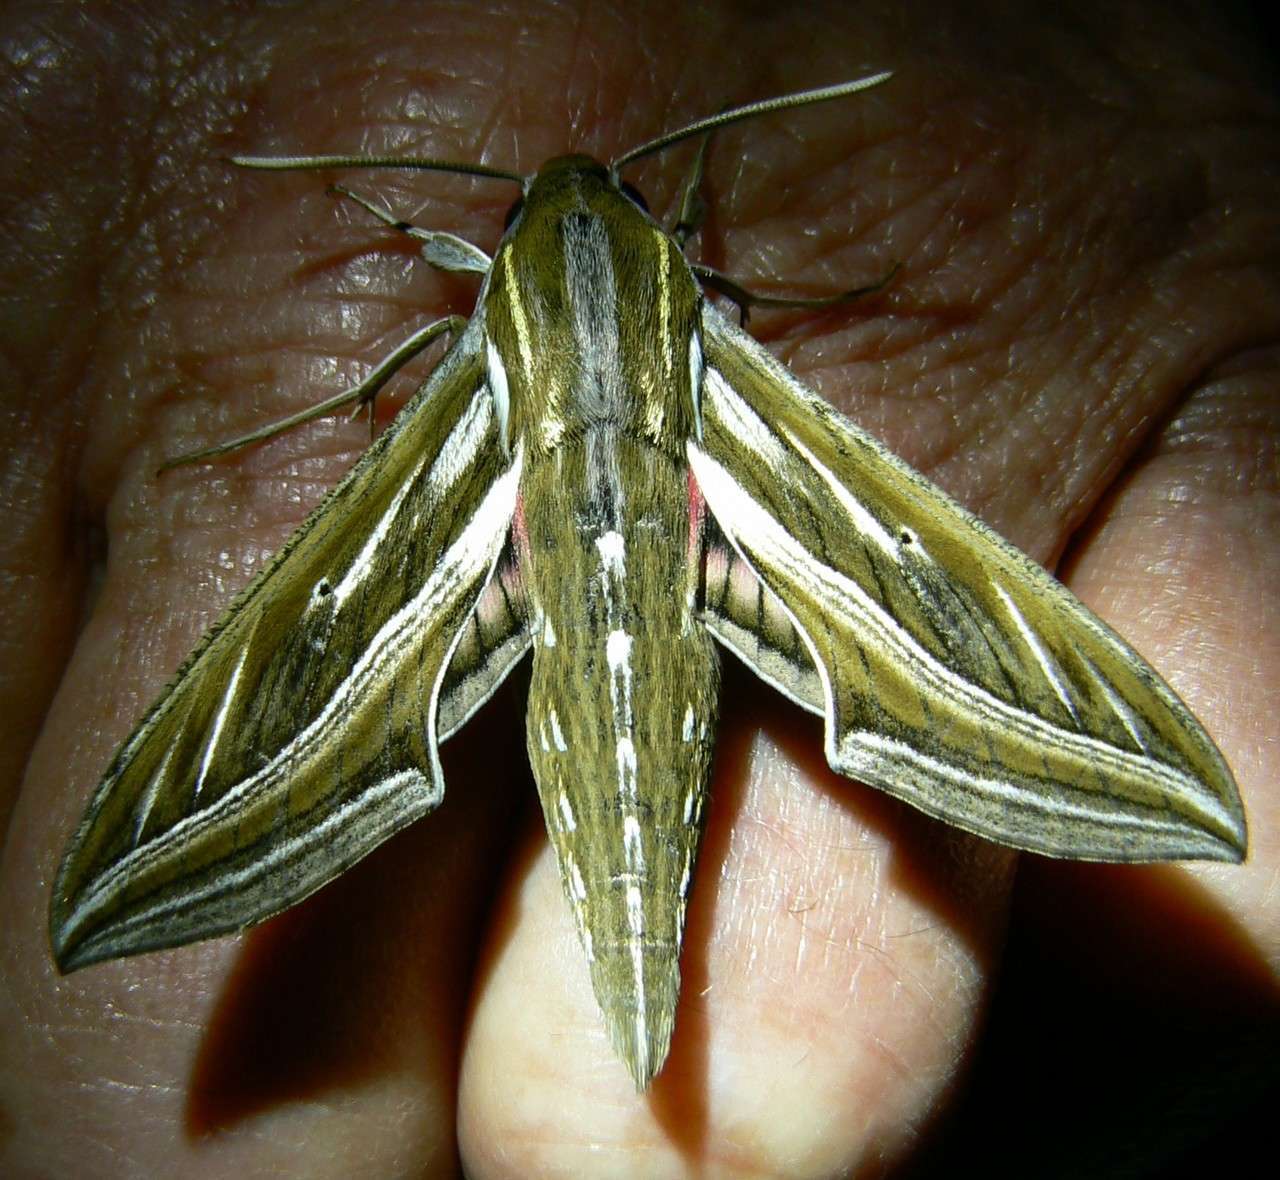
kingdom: Animalia
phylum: Arthropoda
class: Insecta
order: Lepidoptera
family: Sphingidae
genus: Hippotion
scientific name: Hippotion celerio
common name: Silver-striped hawk-moth
